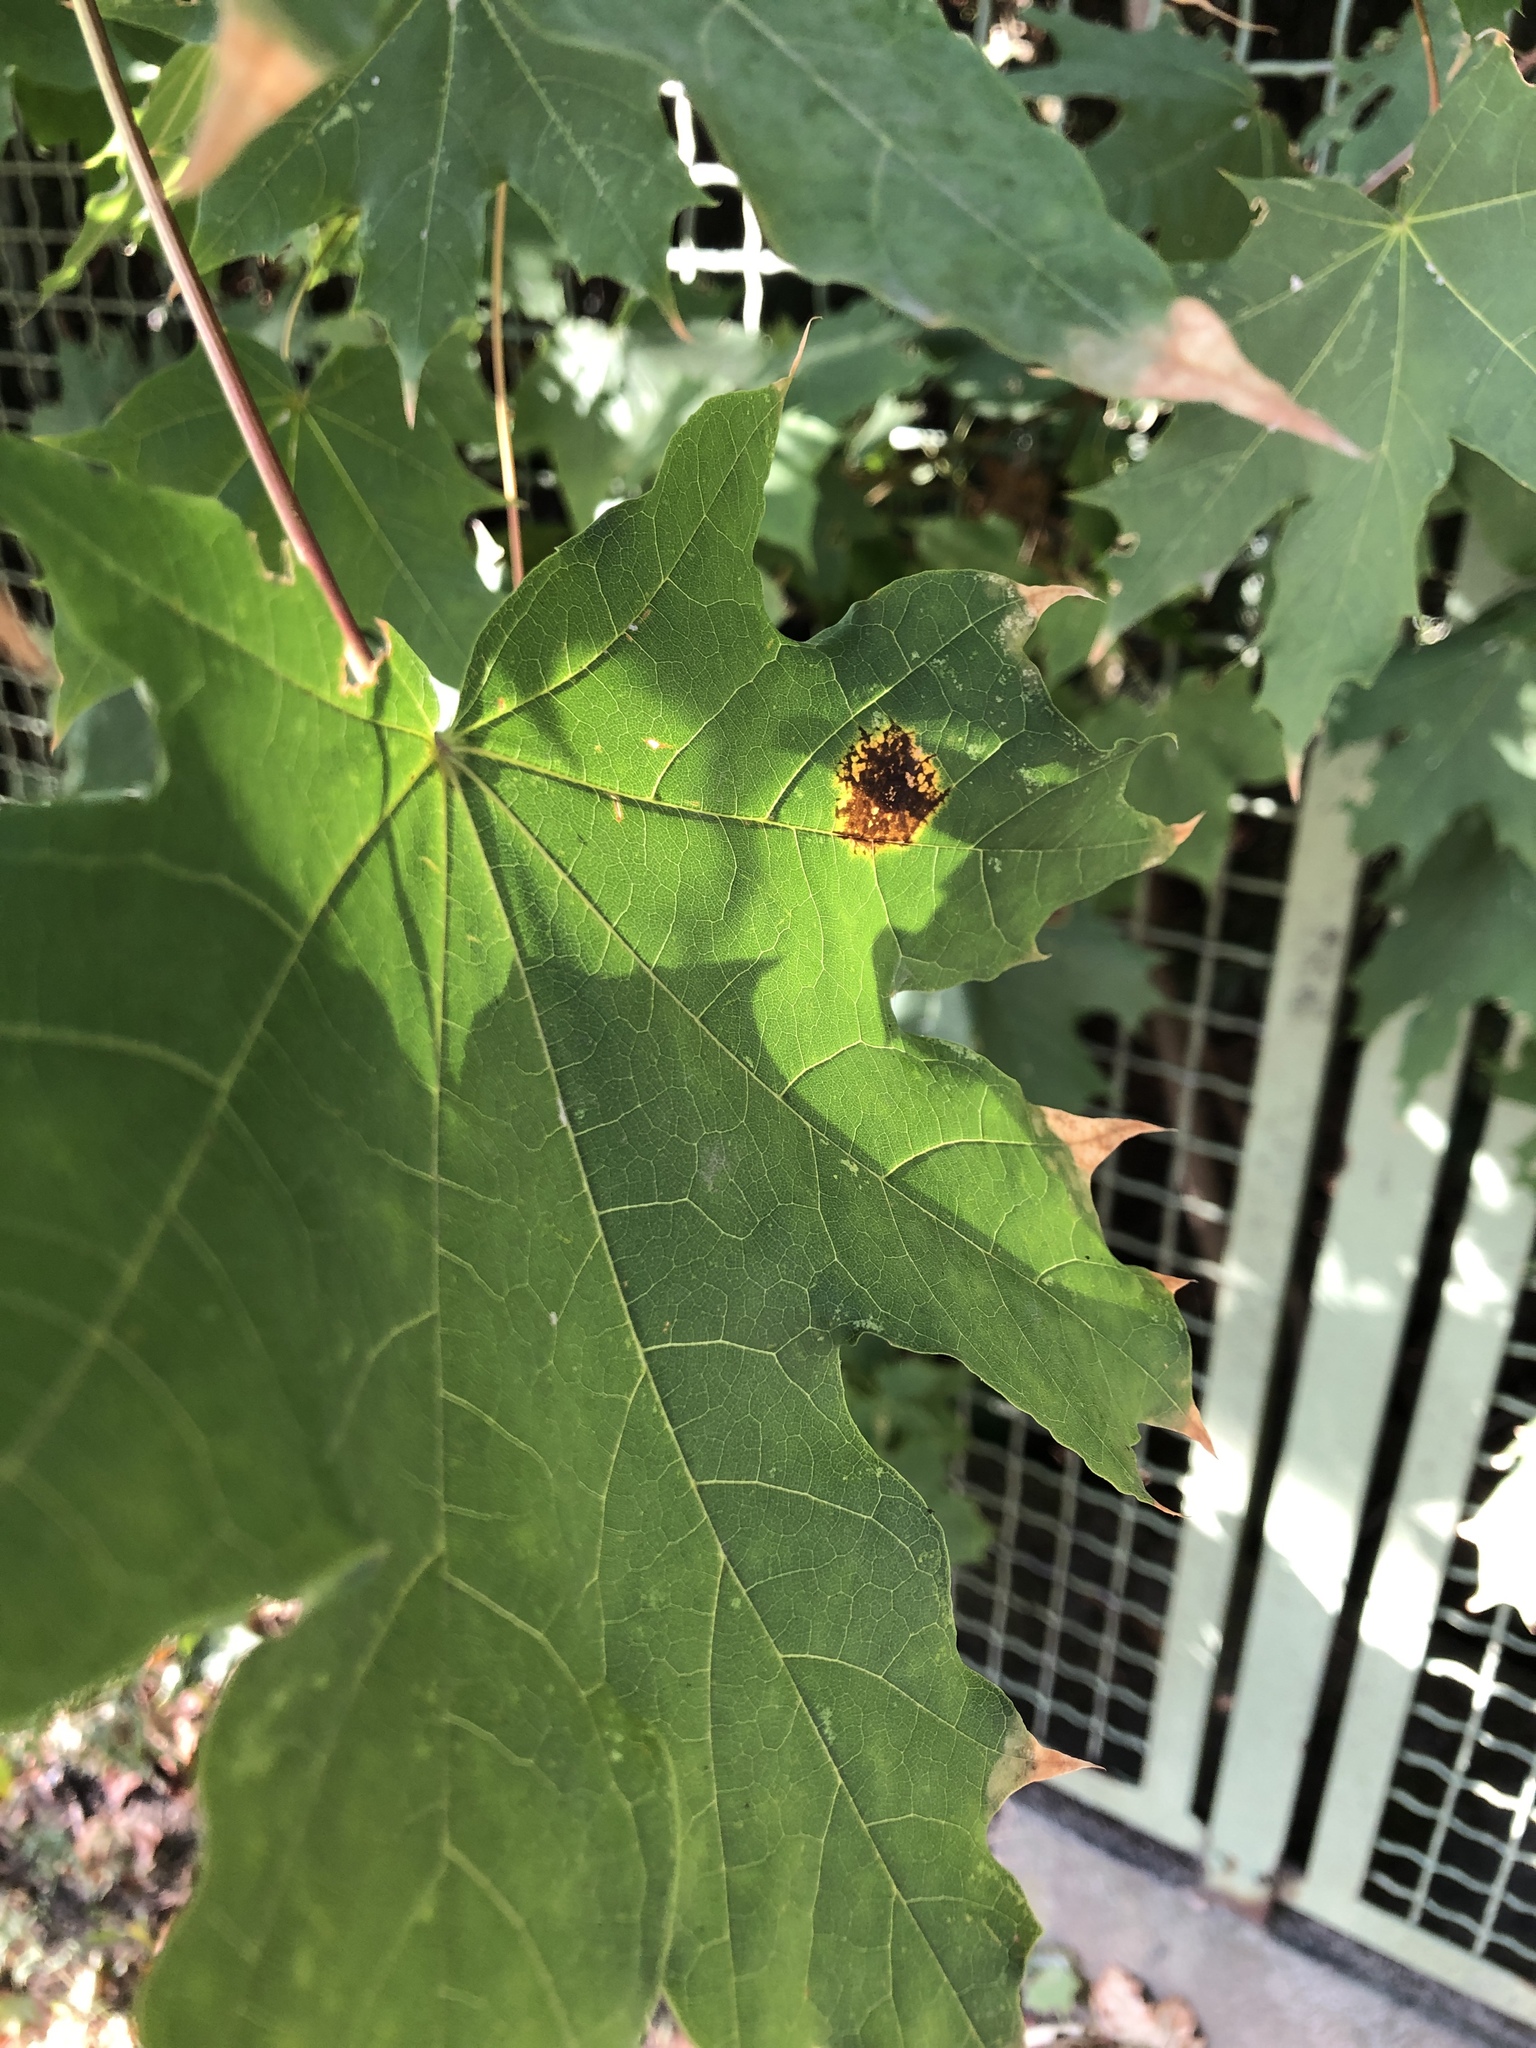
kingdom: Fungi
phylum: Ascomycota
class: Leotiomycetes
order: Rhytismatales
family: Rhytismataceae
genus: Rhytisma
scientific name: Rhytisma acerinum
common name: European tar spot
